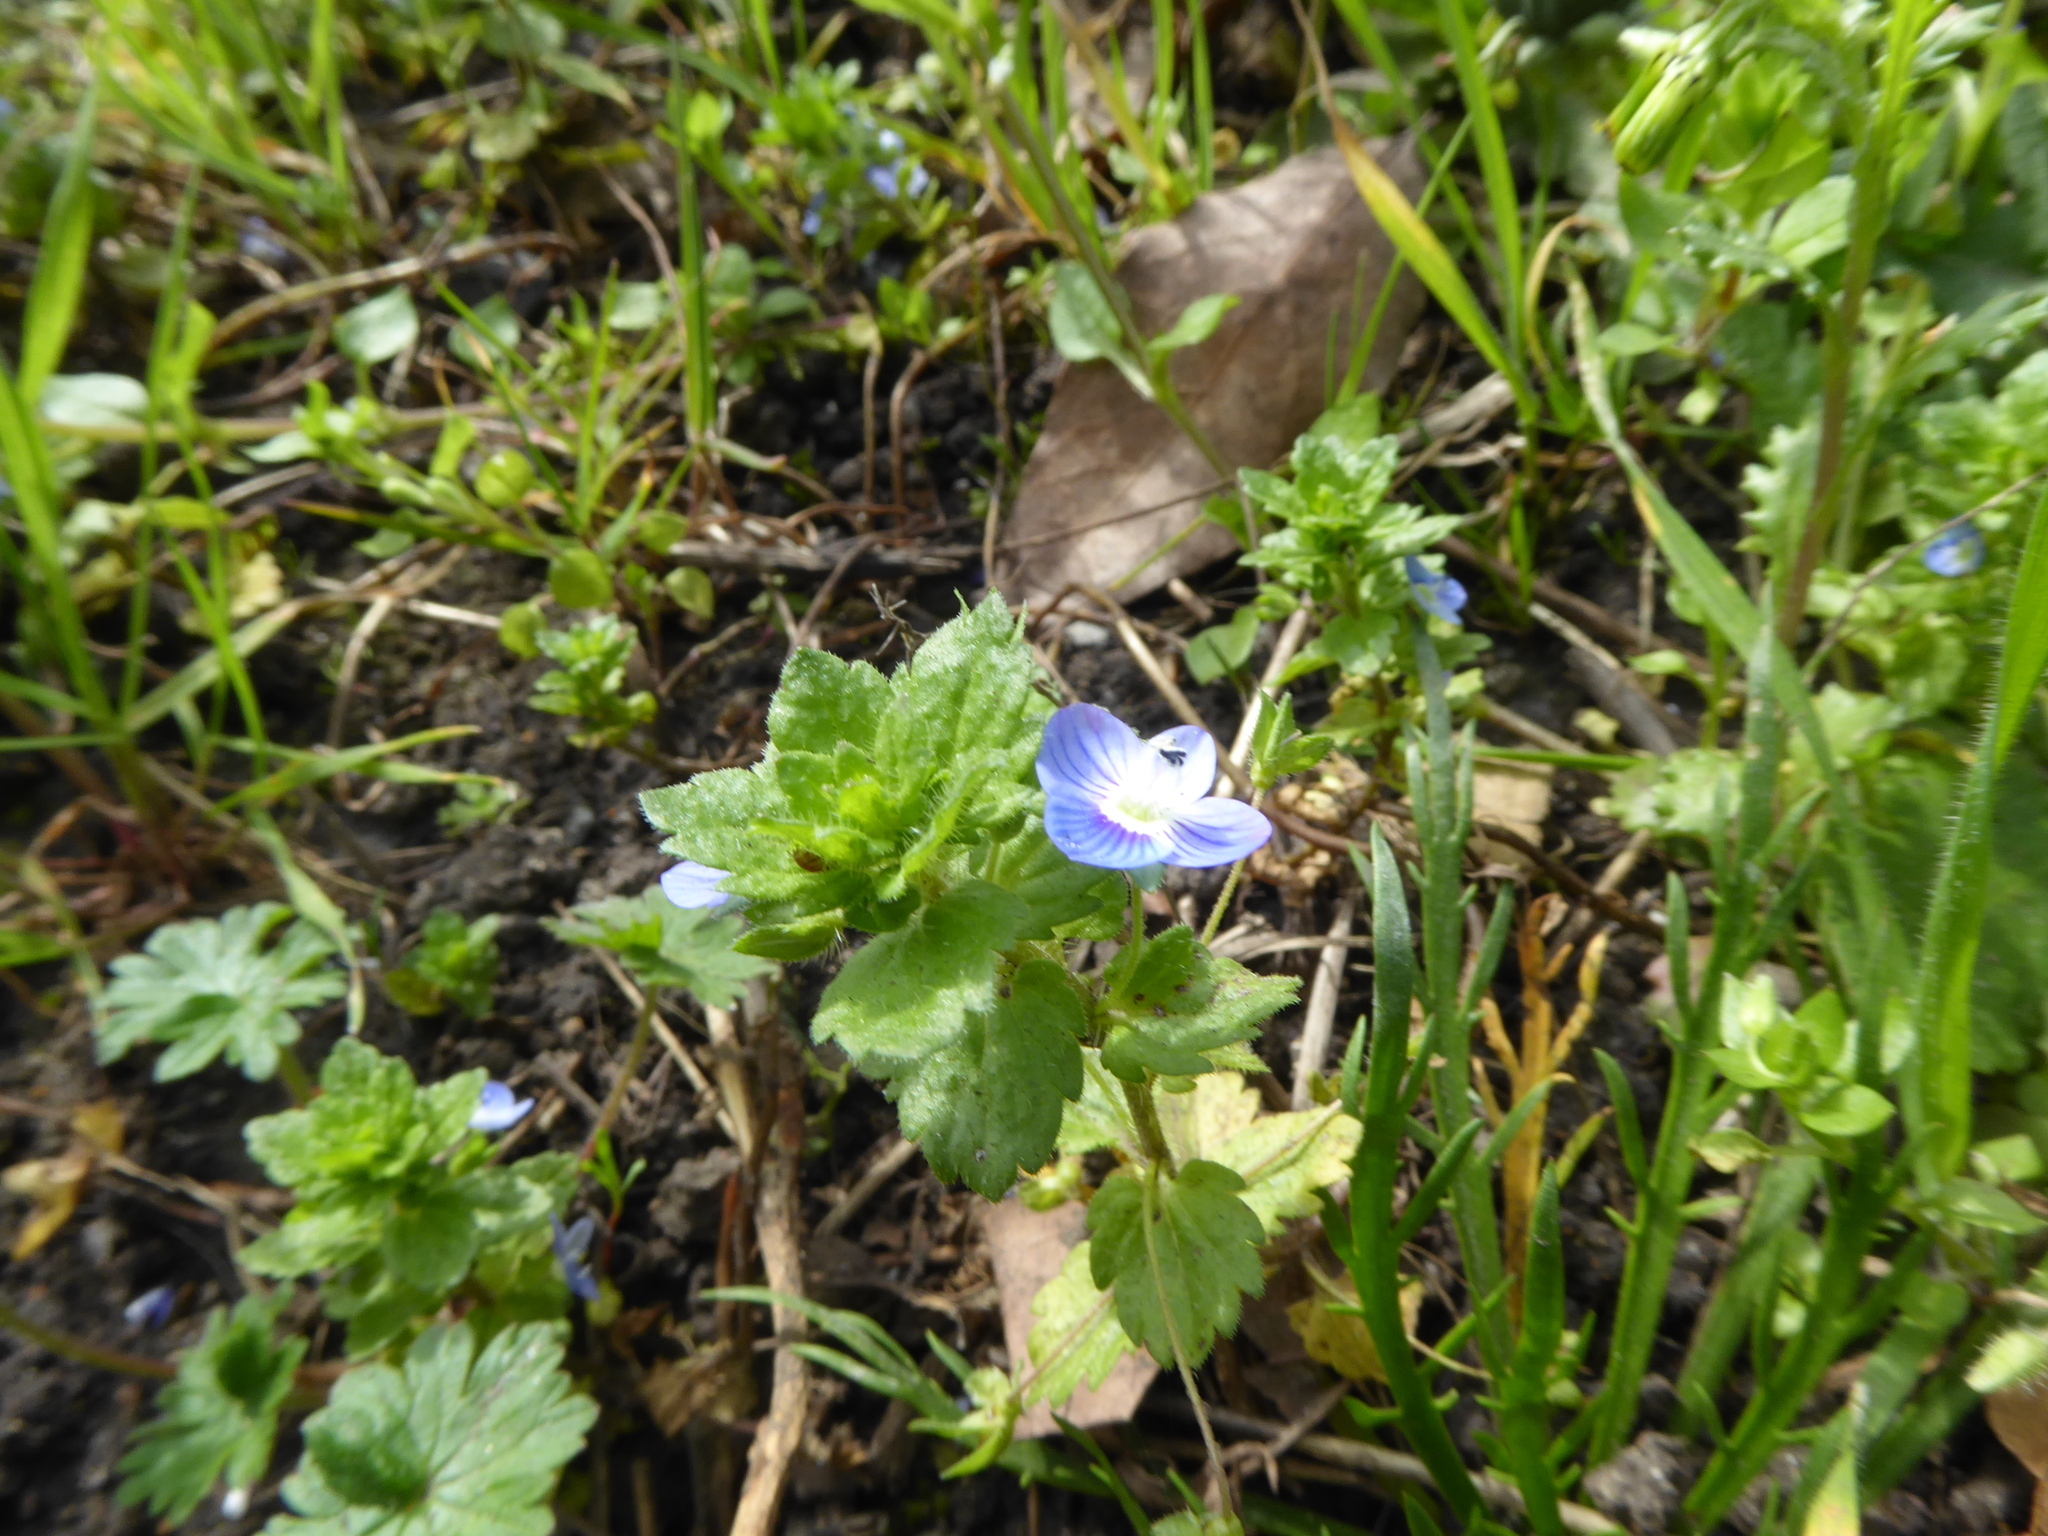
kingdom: Plantae
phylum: Tracheophyta
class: Magnoliopsida
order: Lamiales
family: Plantaginaceae
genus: Veronica
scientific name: Veronica persica
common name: Common field-speedwell
